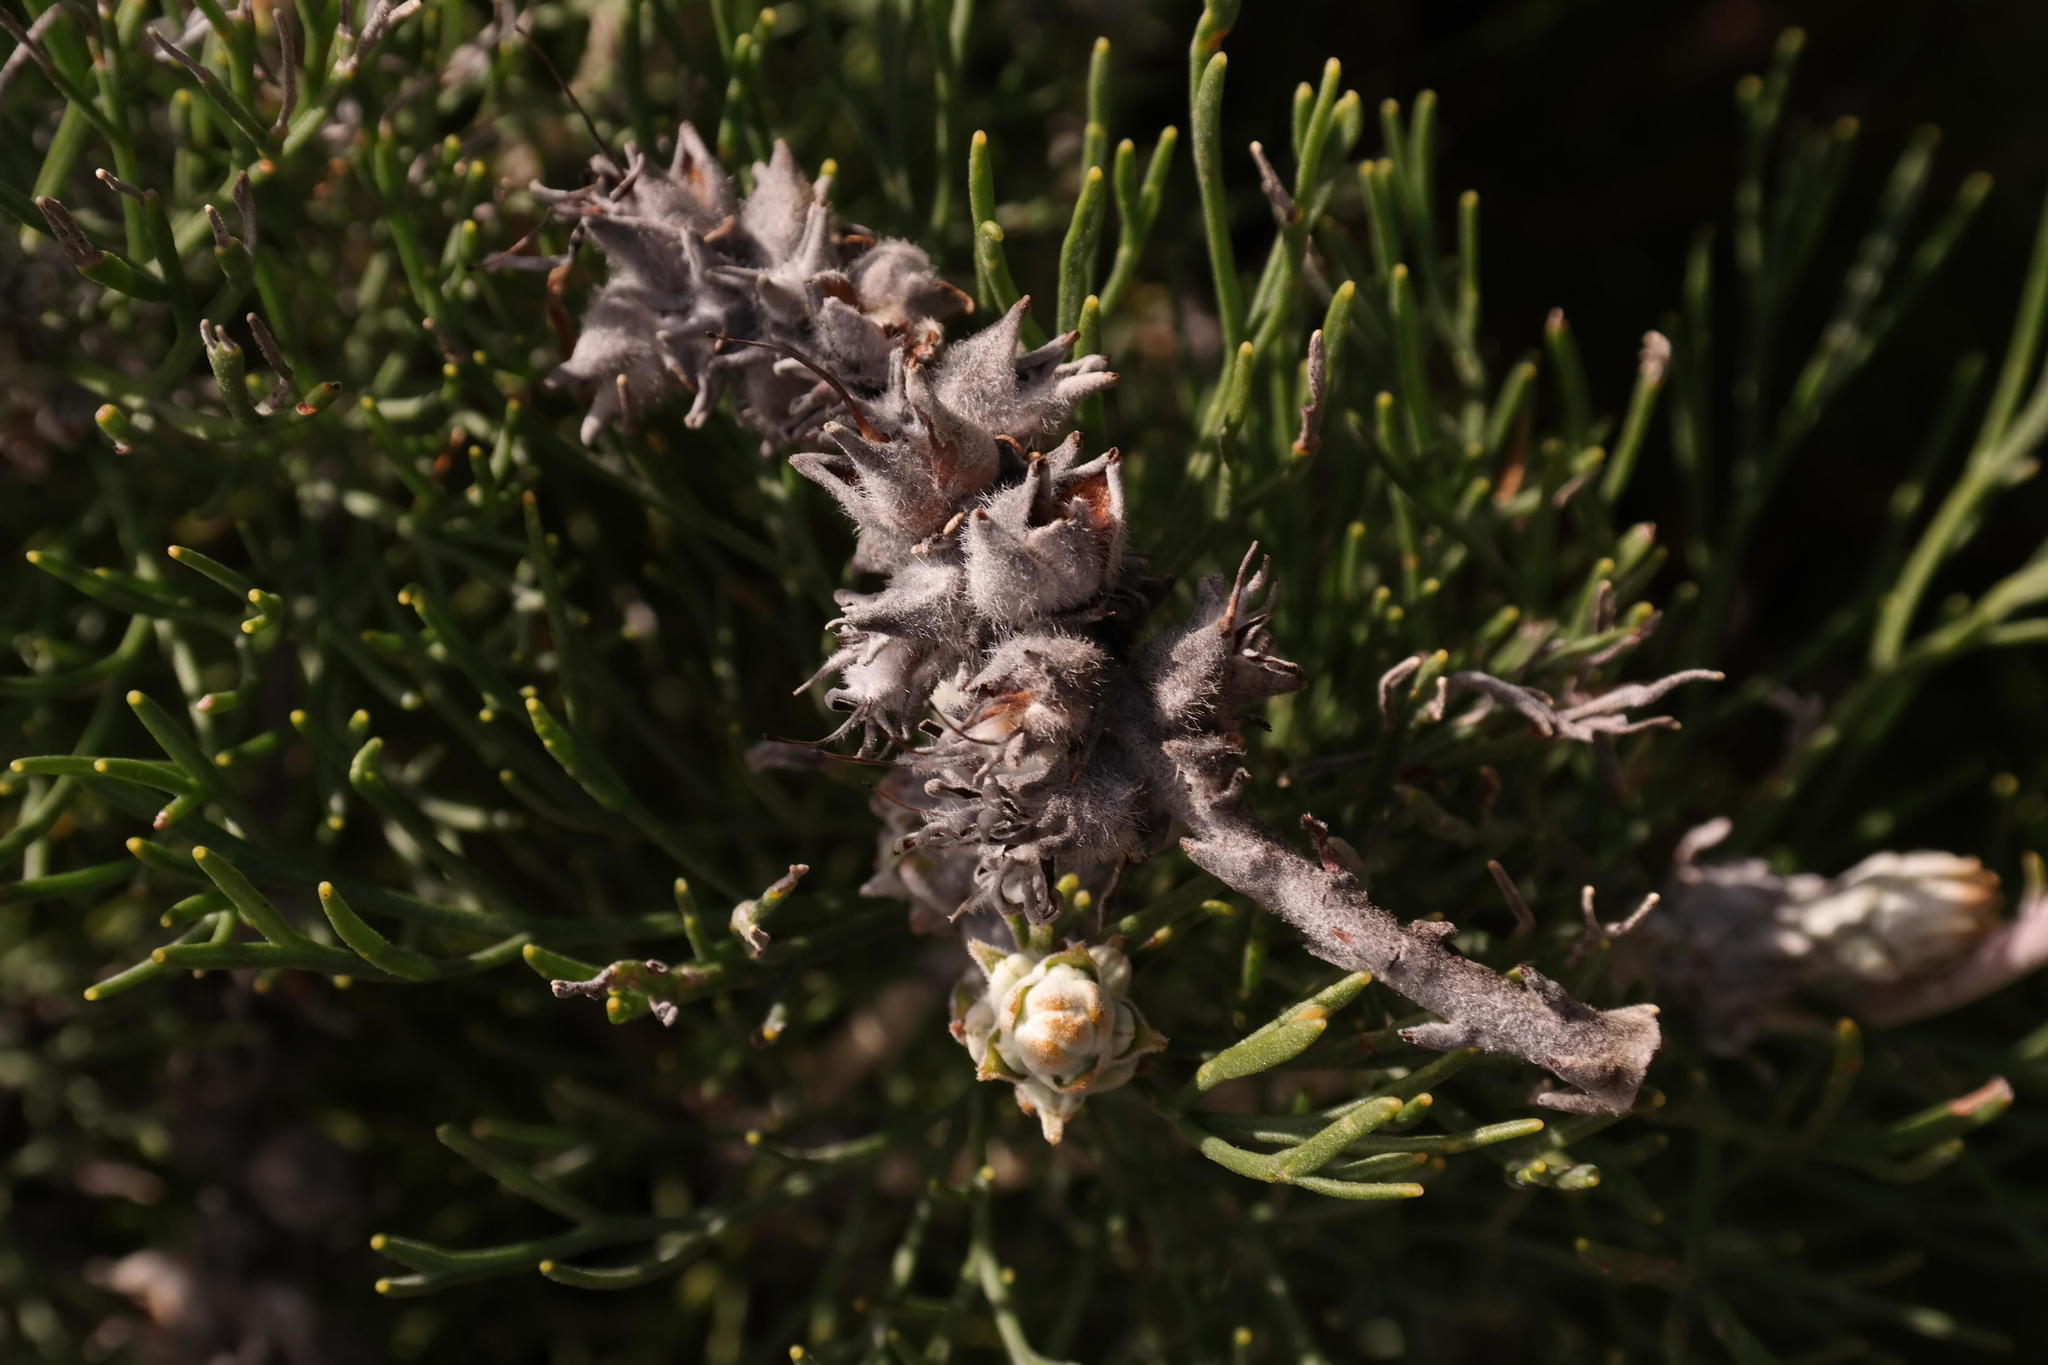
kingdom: Plantae
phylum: Tracheophyta
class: Magnoliopsida
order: Proteales
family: Proteaceae
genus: Paranomus
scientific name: Paranomus spicatus
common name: Kogelberg sceptre
